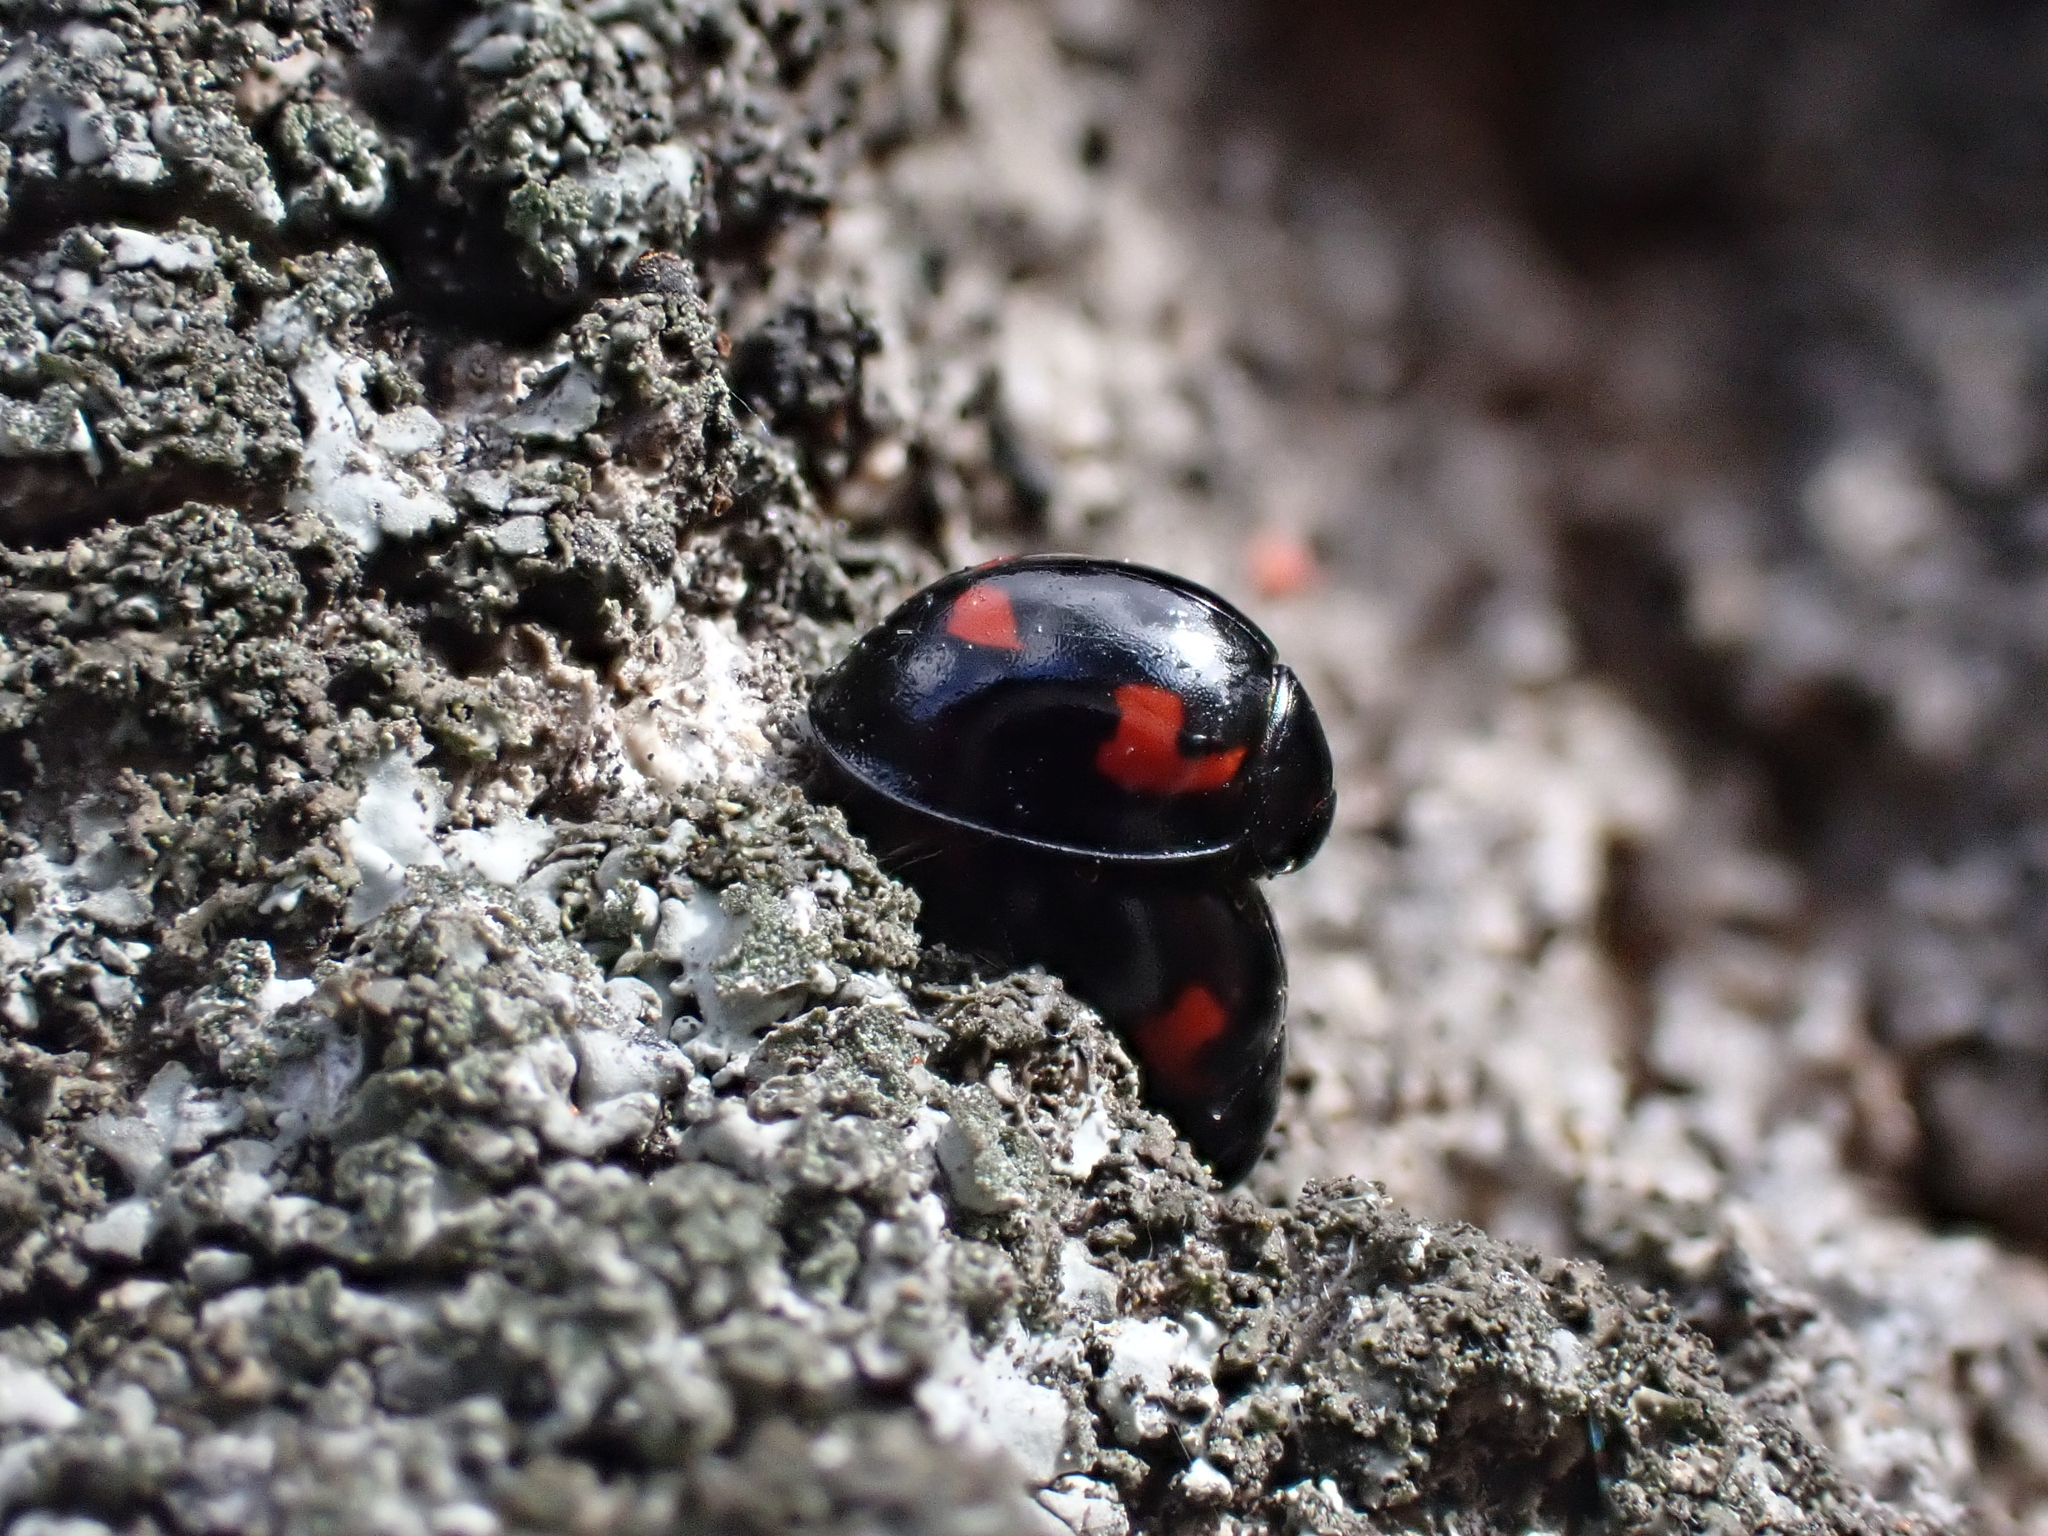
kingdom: Animalia
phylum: Arthropoda
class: Insecta
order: Coleoptera
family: Coccinellidae
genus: Brumus
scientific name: Brumus quadripustulatus
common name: Ladybird beetle
